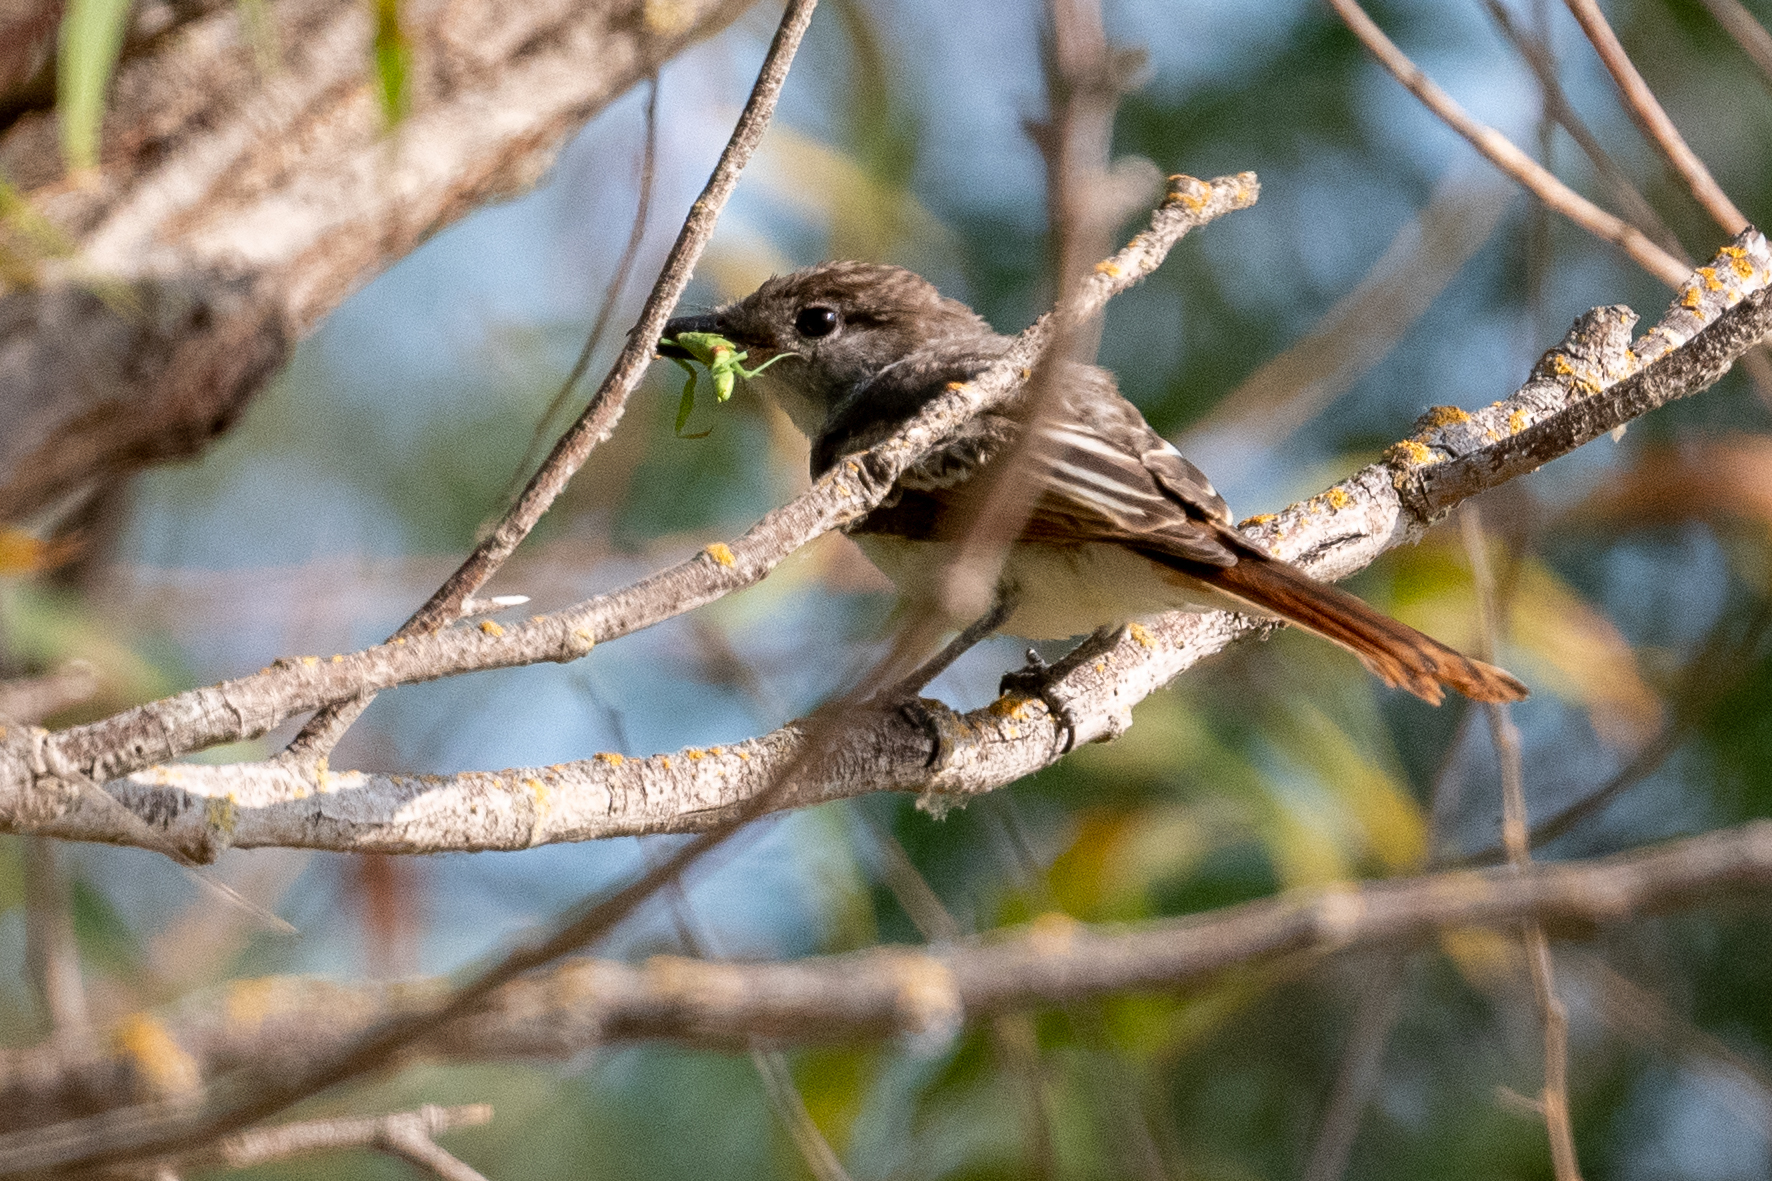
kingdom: Animalia
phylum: Chordata
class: Aves
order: Passeriformes
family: Tyrannidae
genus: Myiarchus
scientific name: Myiarchus cinerascens
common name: Ash-throated flycatcher
